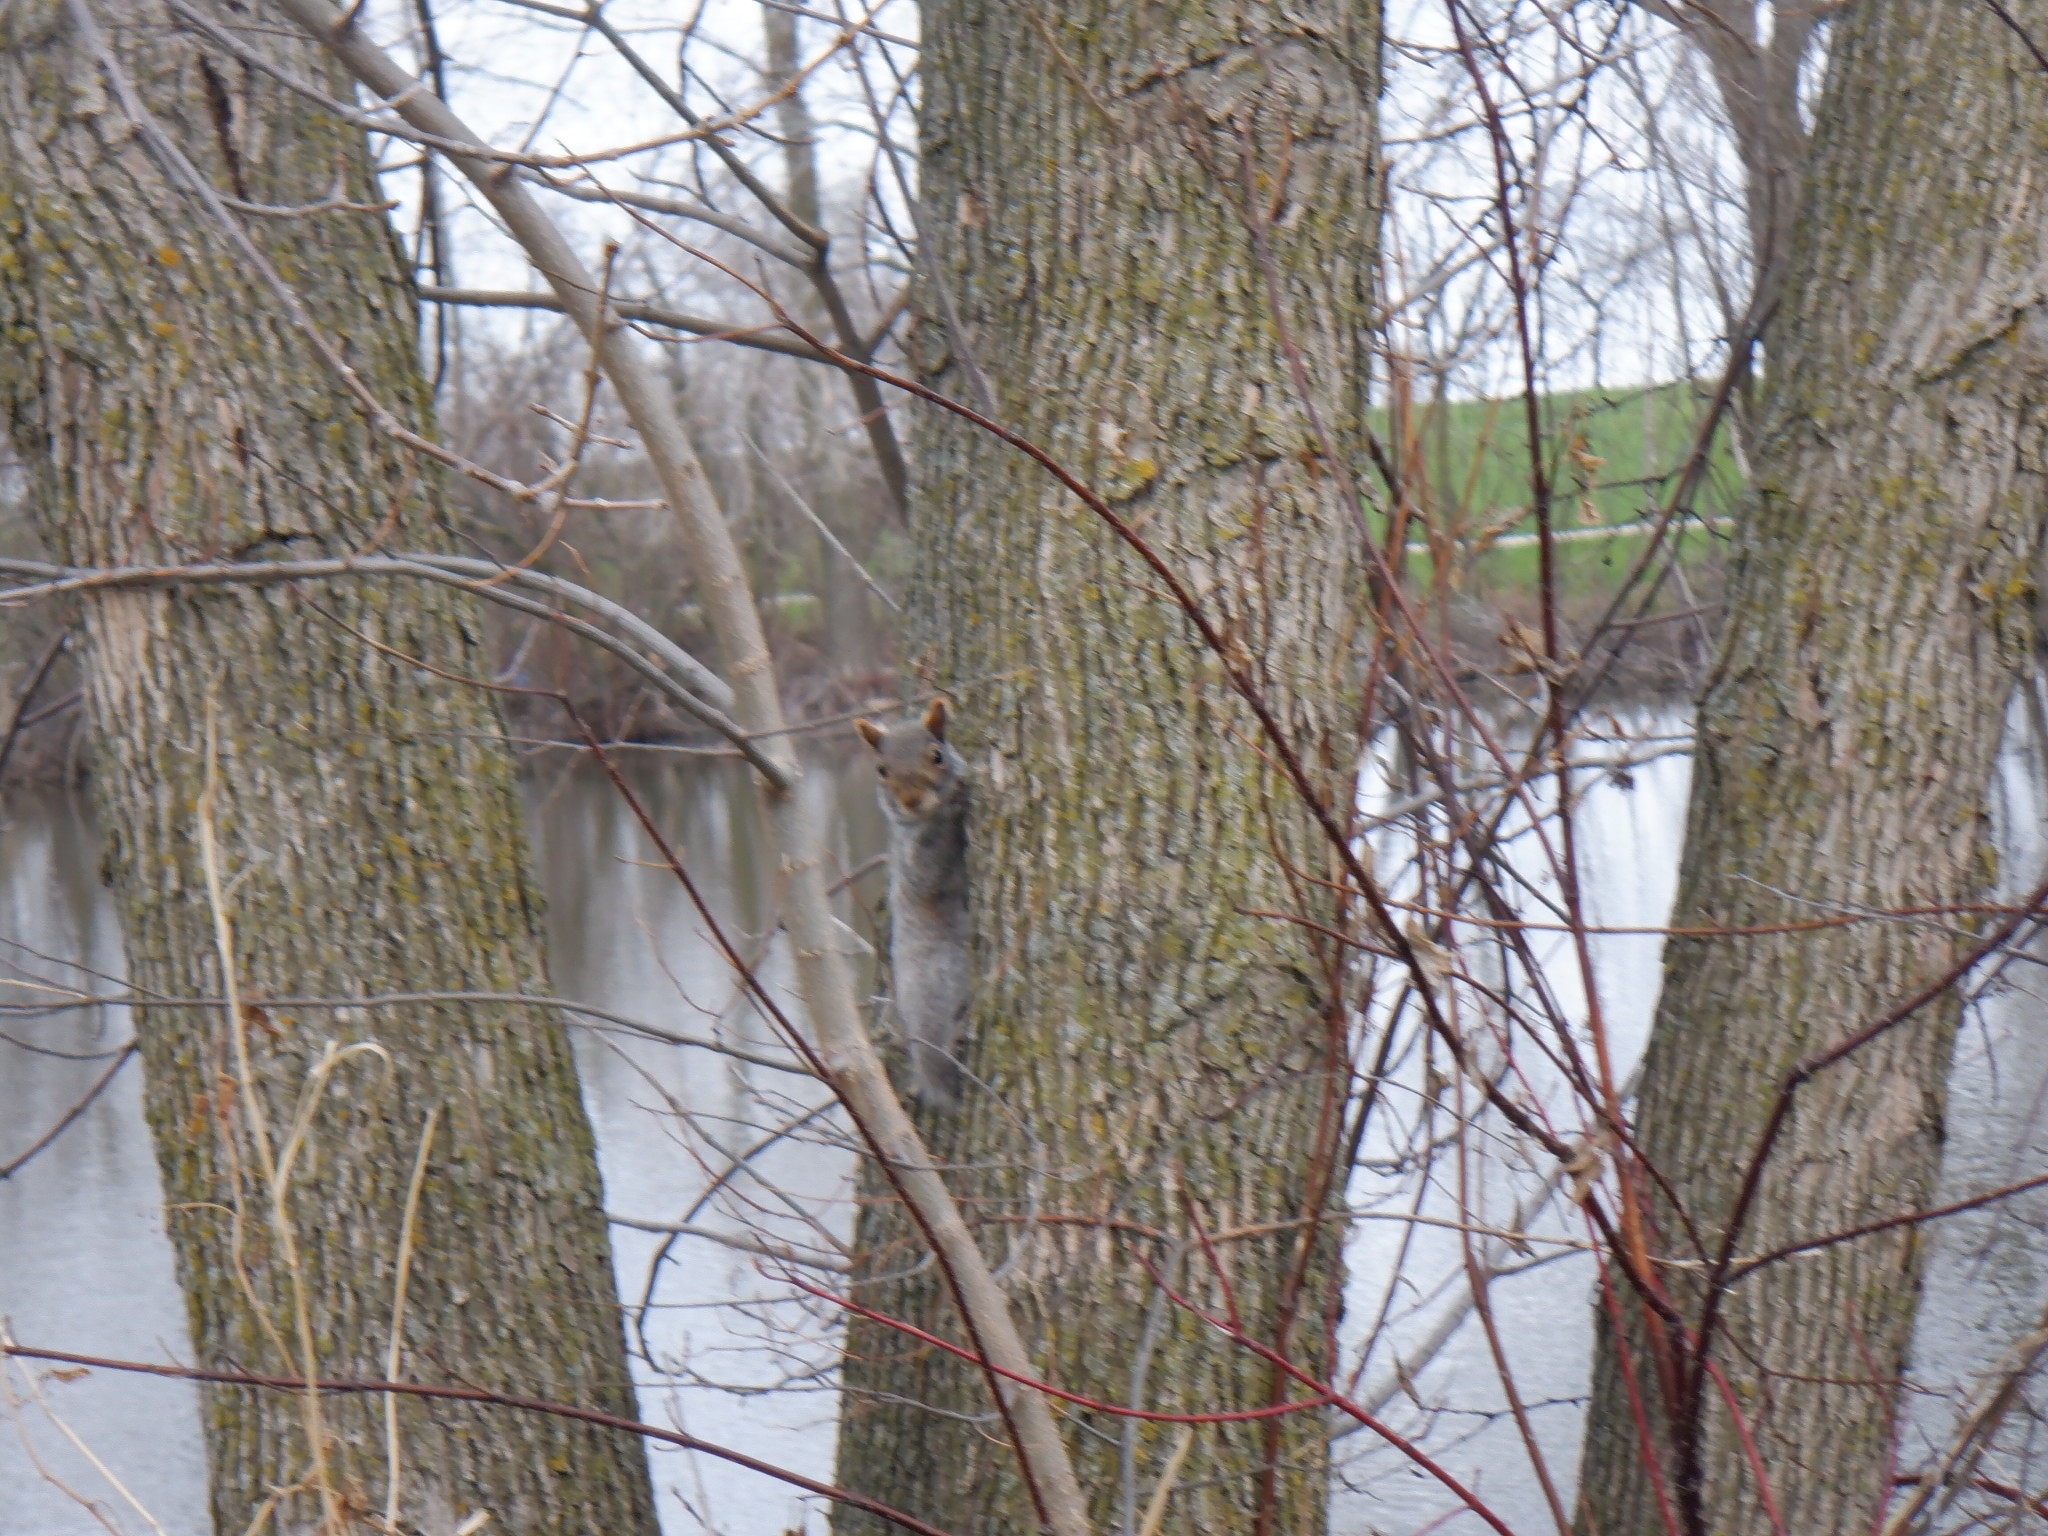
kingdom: Animalia
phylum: Chordata
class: Mammalia
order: Rodentia
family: Sciuridae
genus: Sciurus
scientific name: Sciurus carolinensis
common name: Eastern gray squirrel
